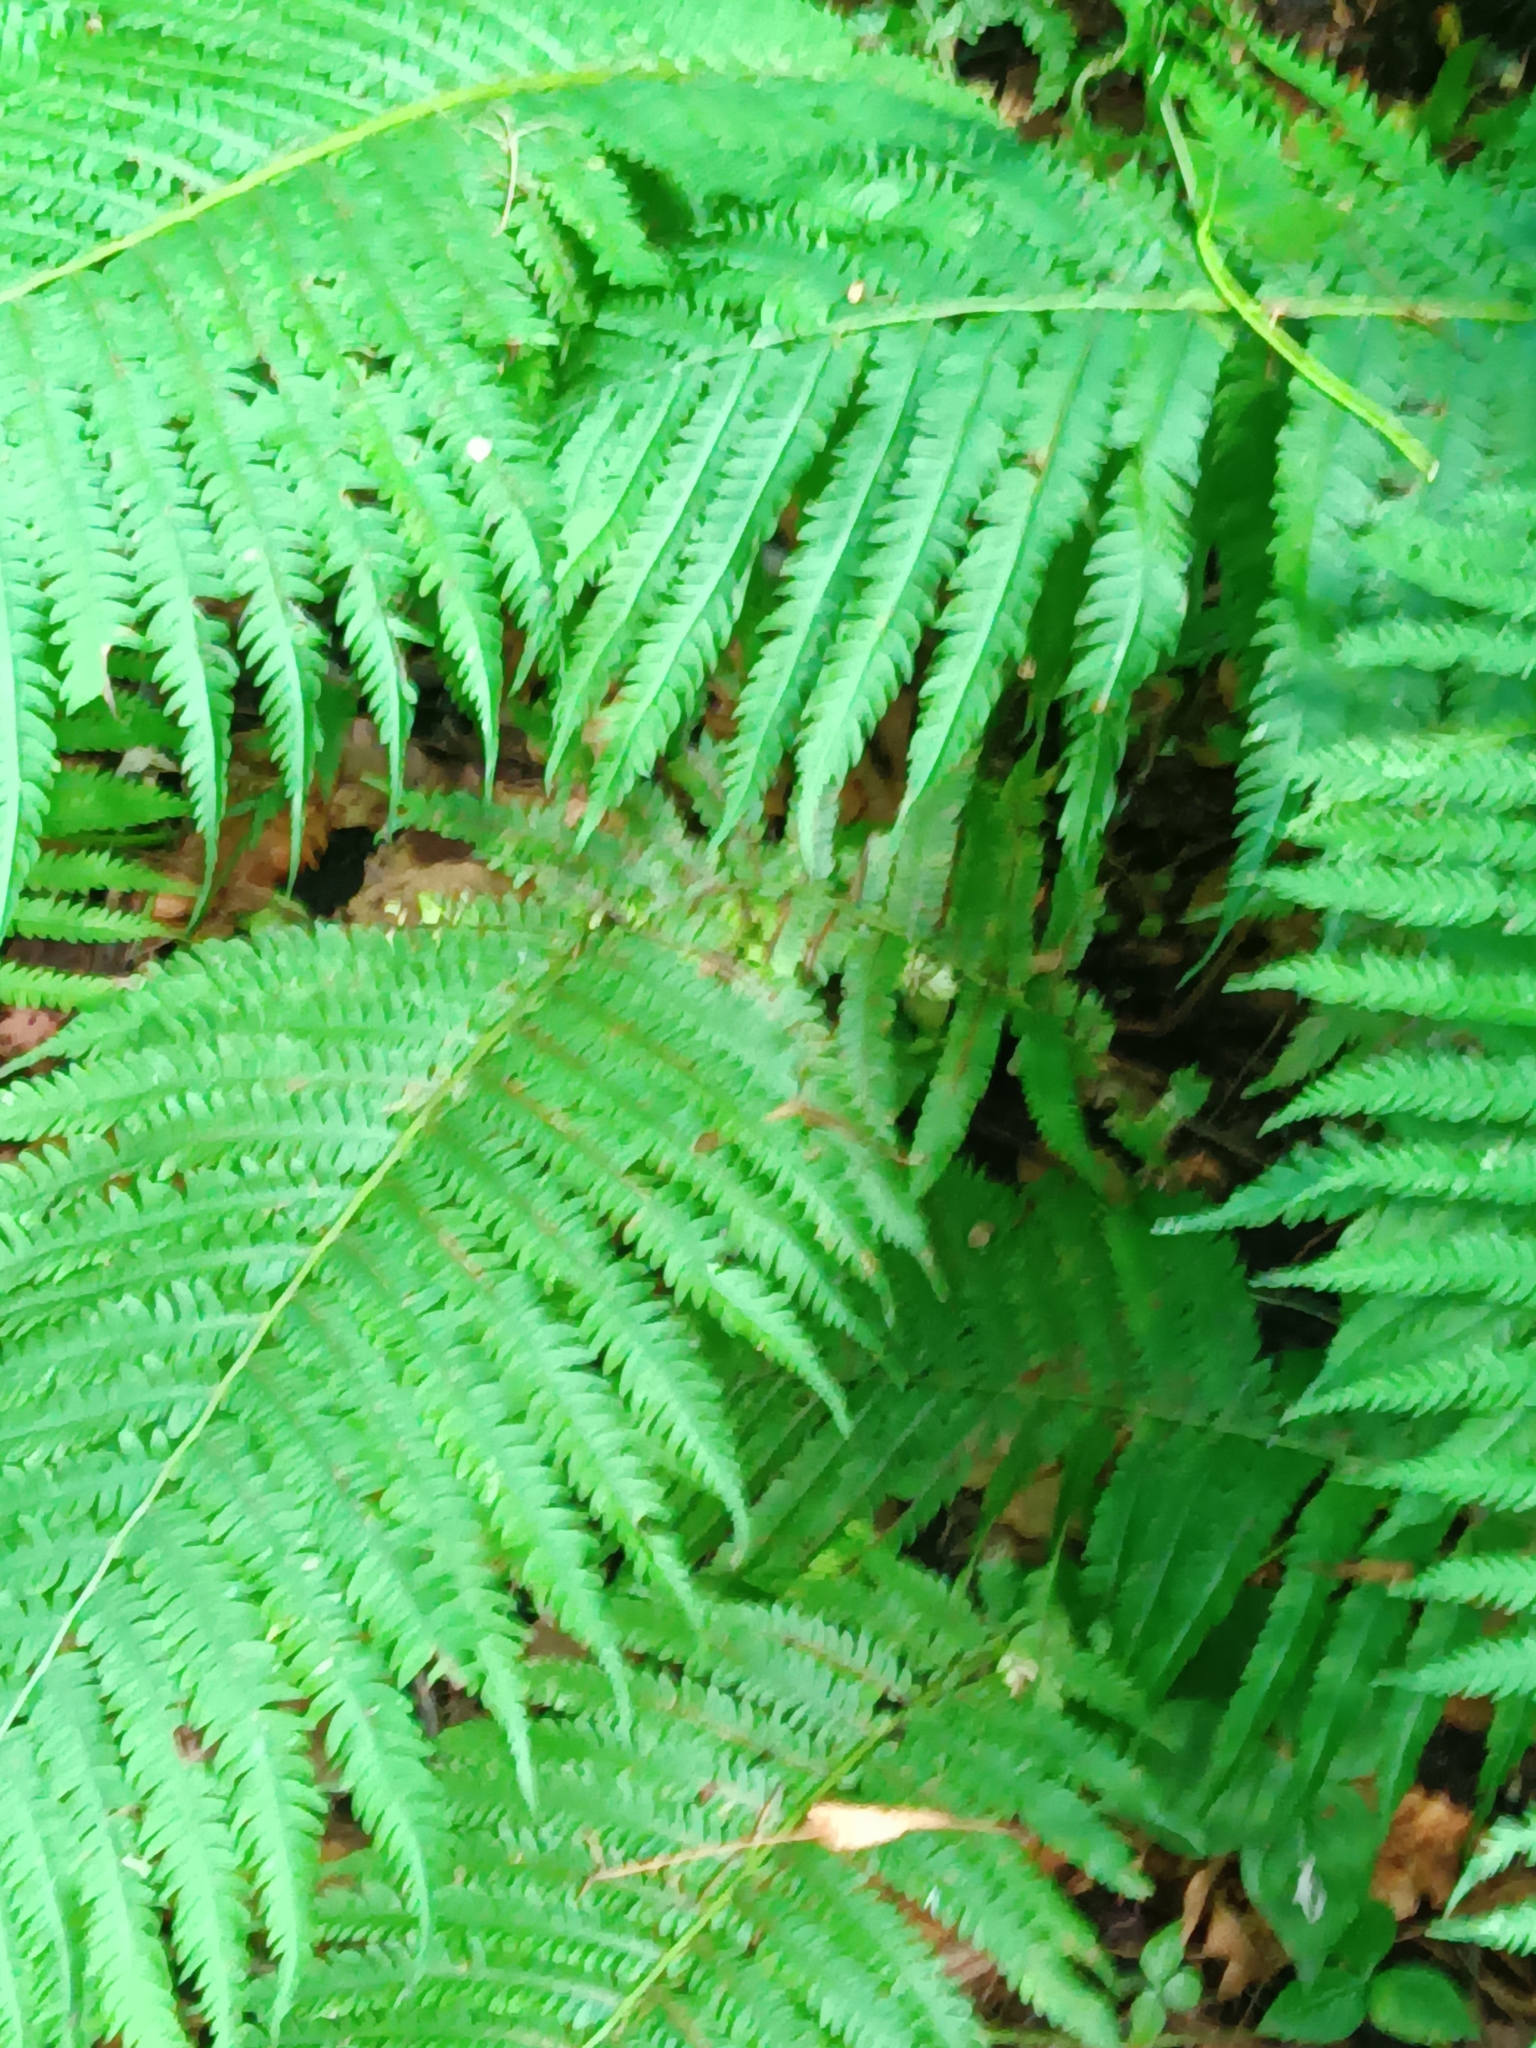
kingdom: Plantae
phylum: Tracheophyta
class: Polypodiopsida
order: Polypodiales
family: Onocleaceae
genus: Matteuccia
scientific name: Matteuccia struthiopteris
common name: Ostrich fern
